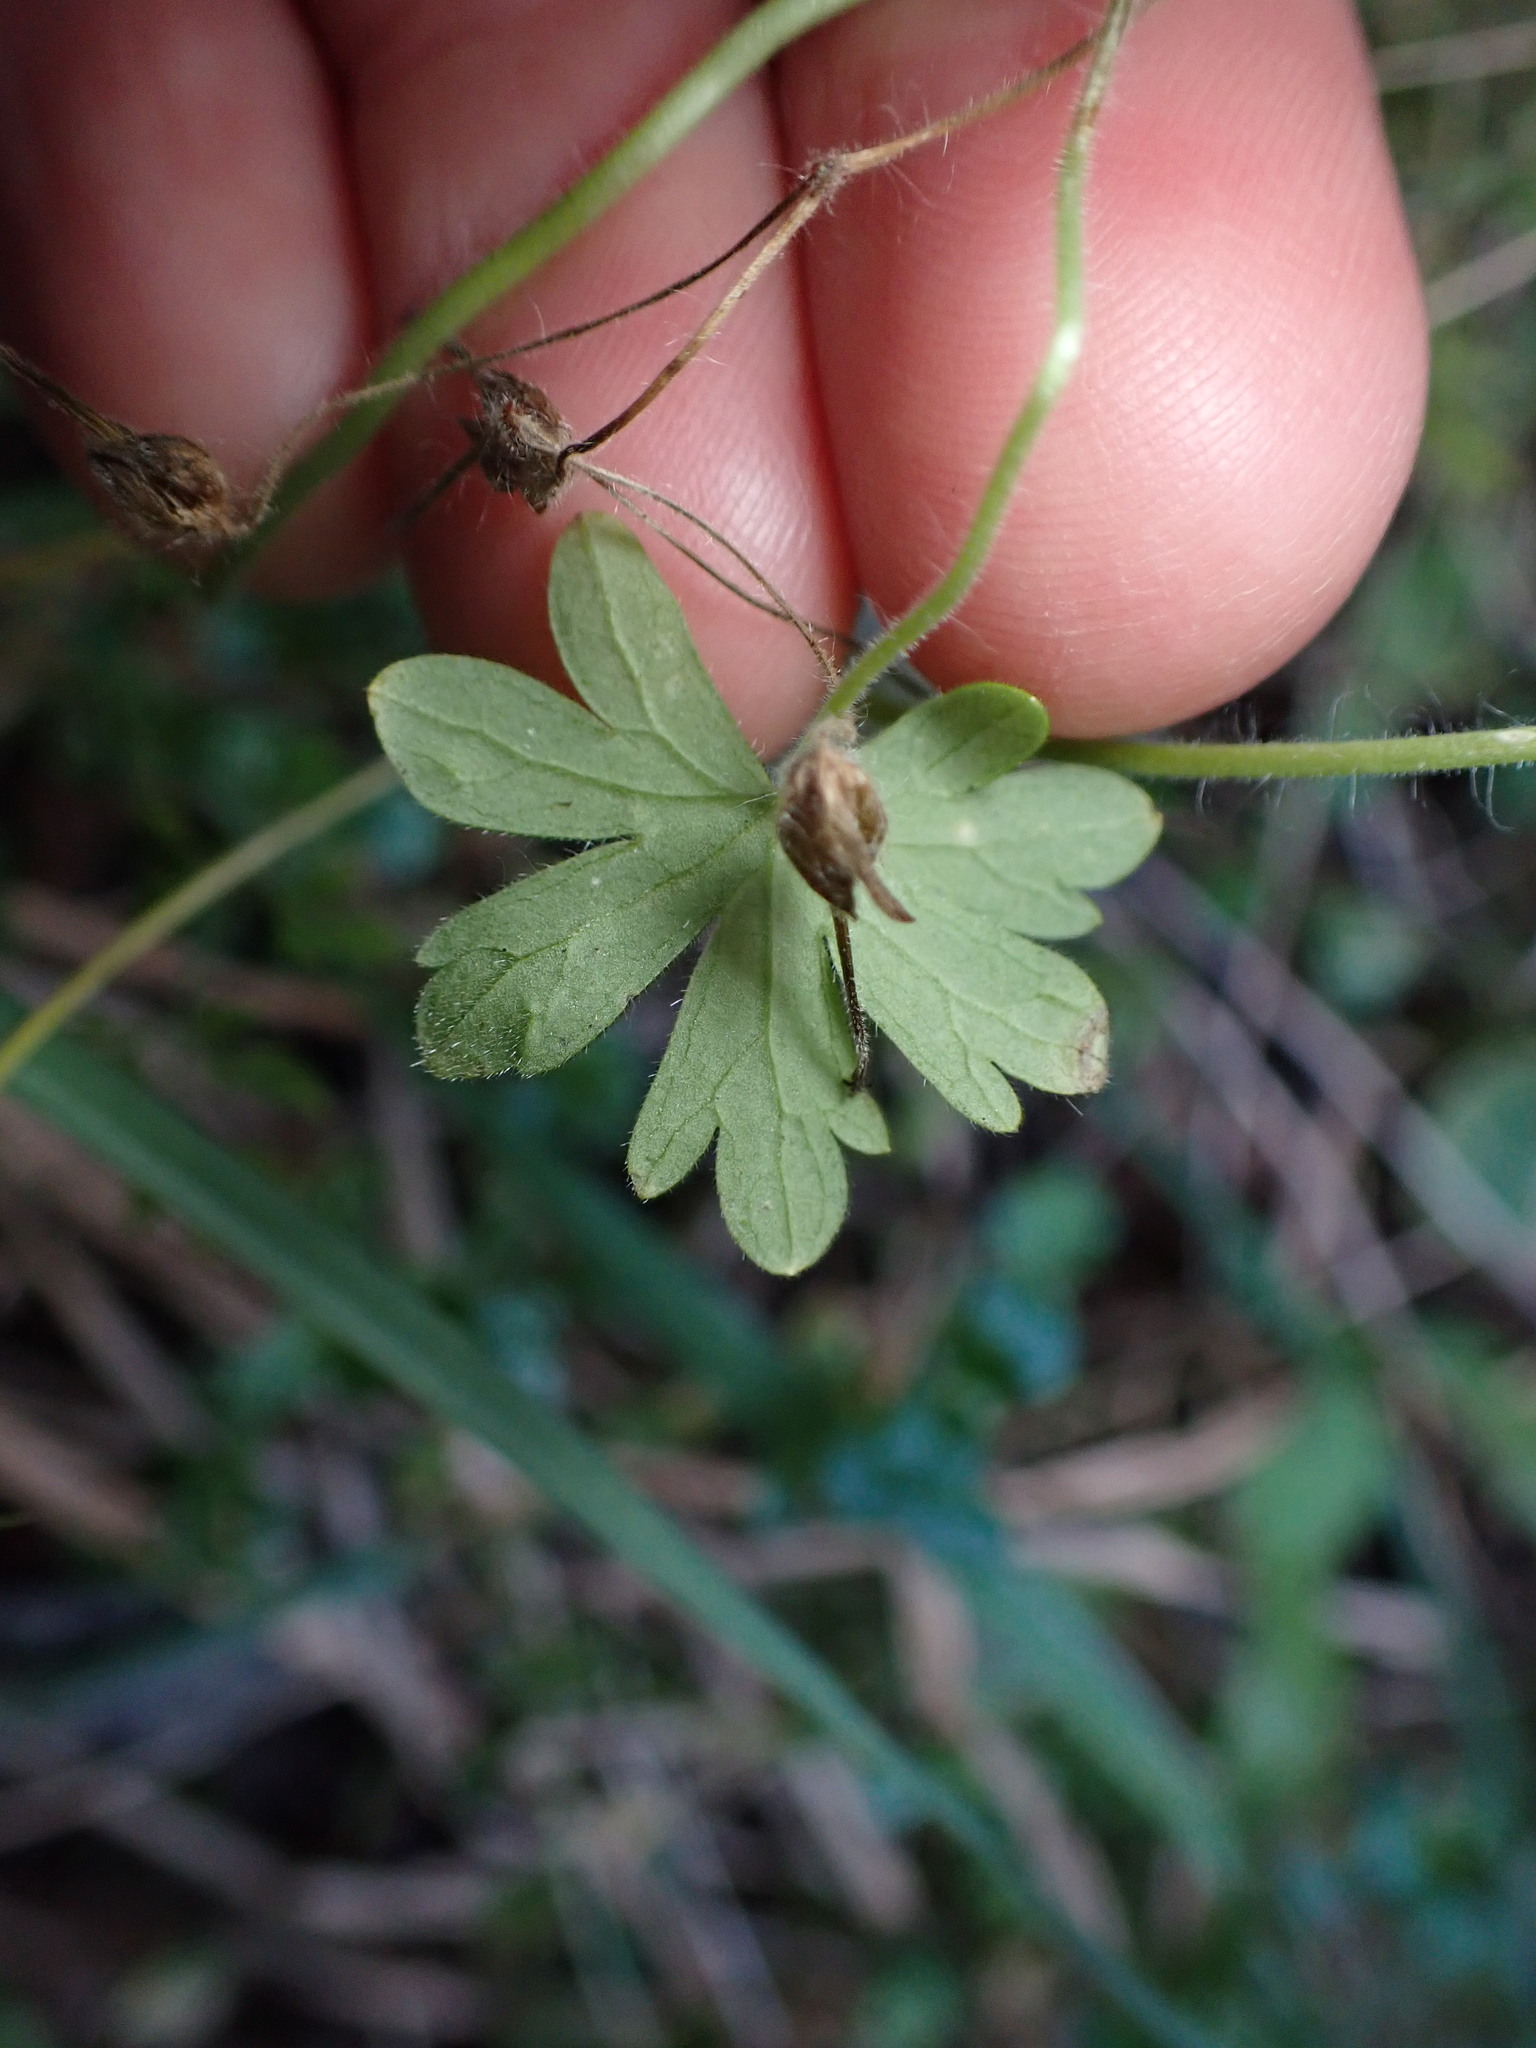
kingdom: Plantae
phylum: Tracheophyta
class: Magnoliopsida
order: Geraniales
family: Geraniaceae
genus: Geranium
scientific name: Geranium gardneri
